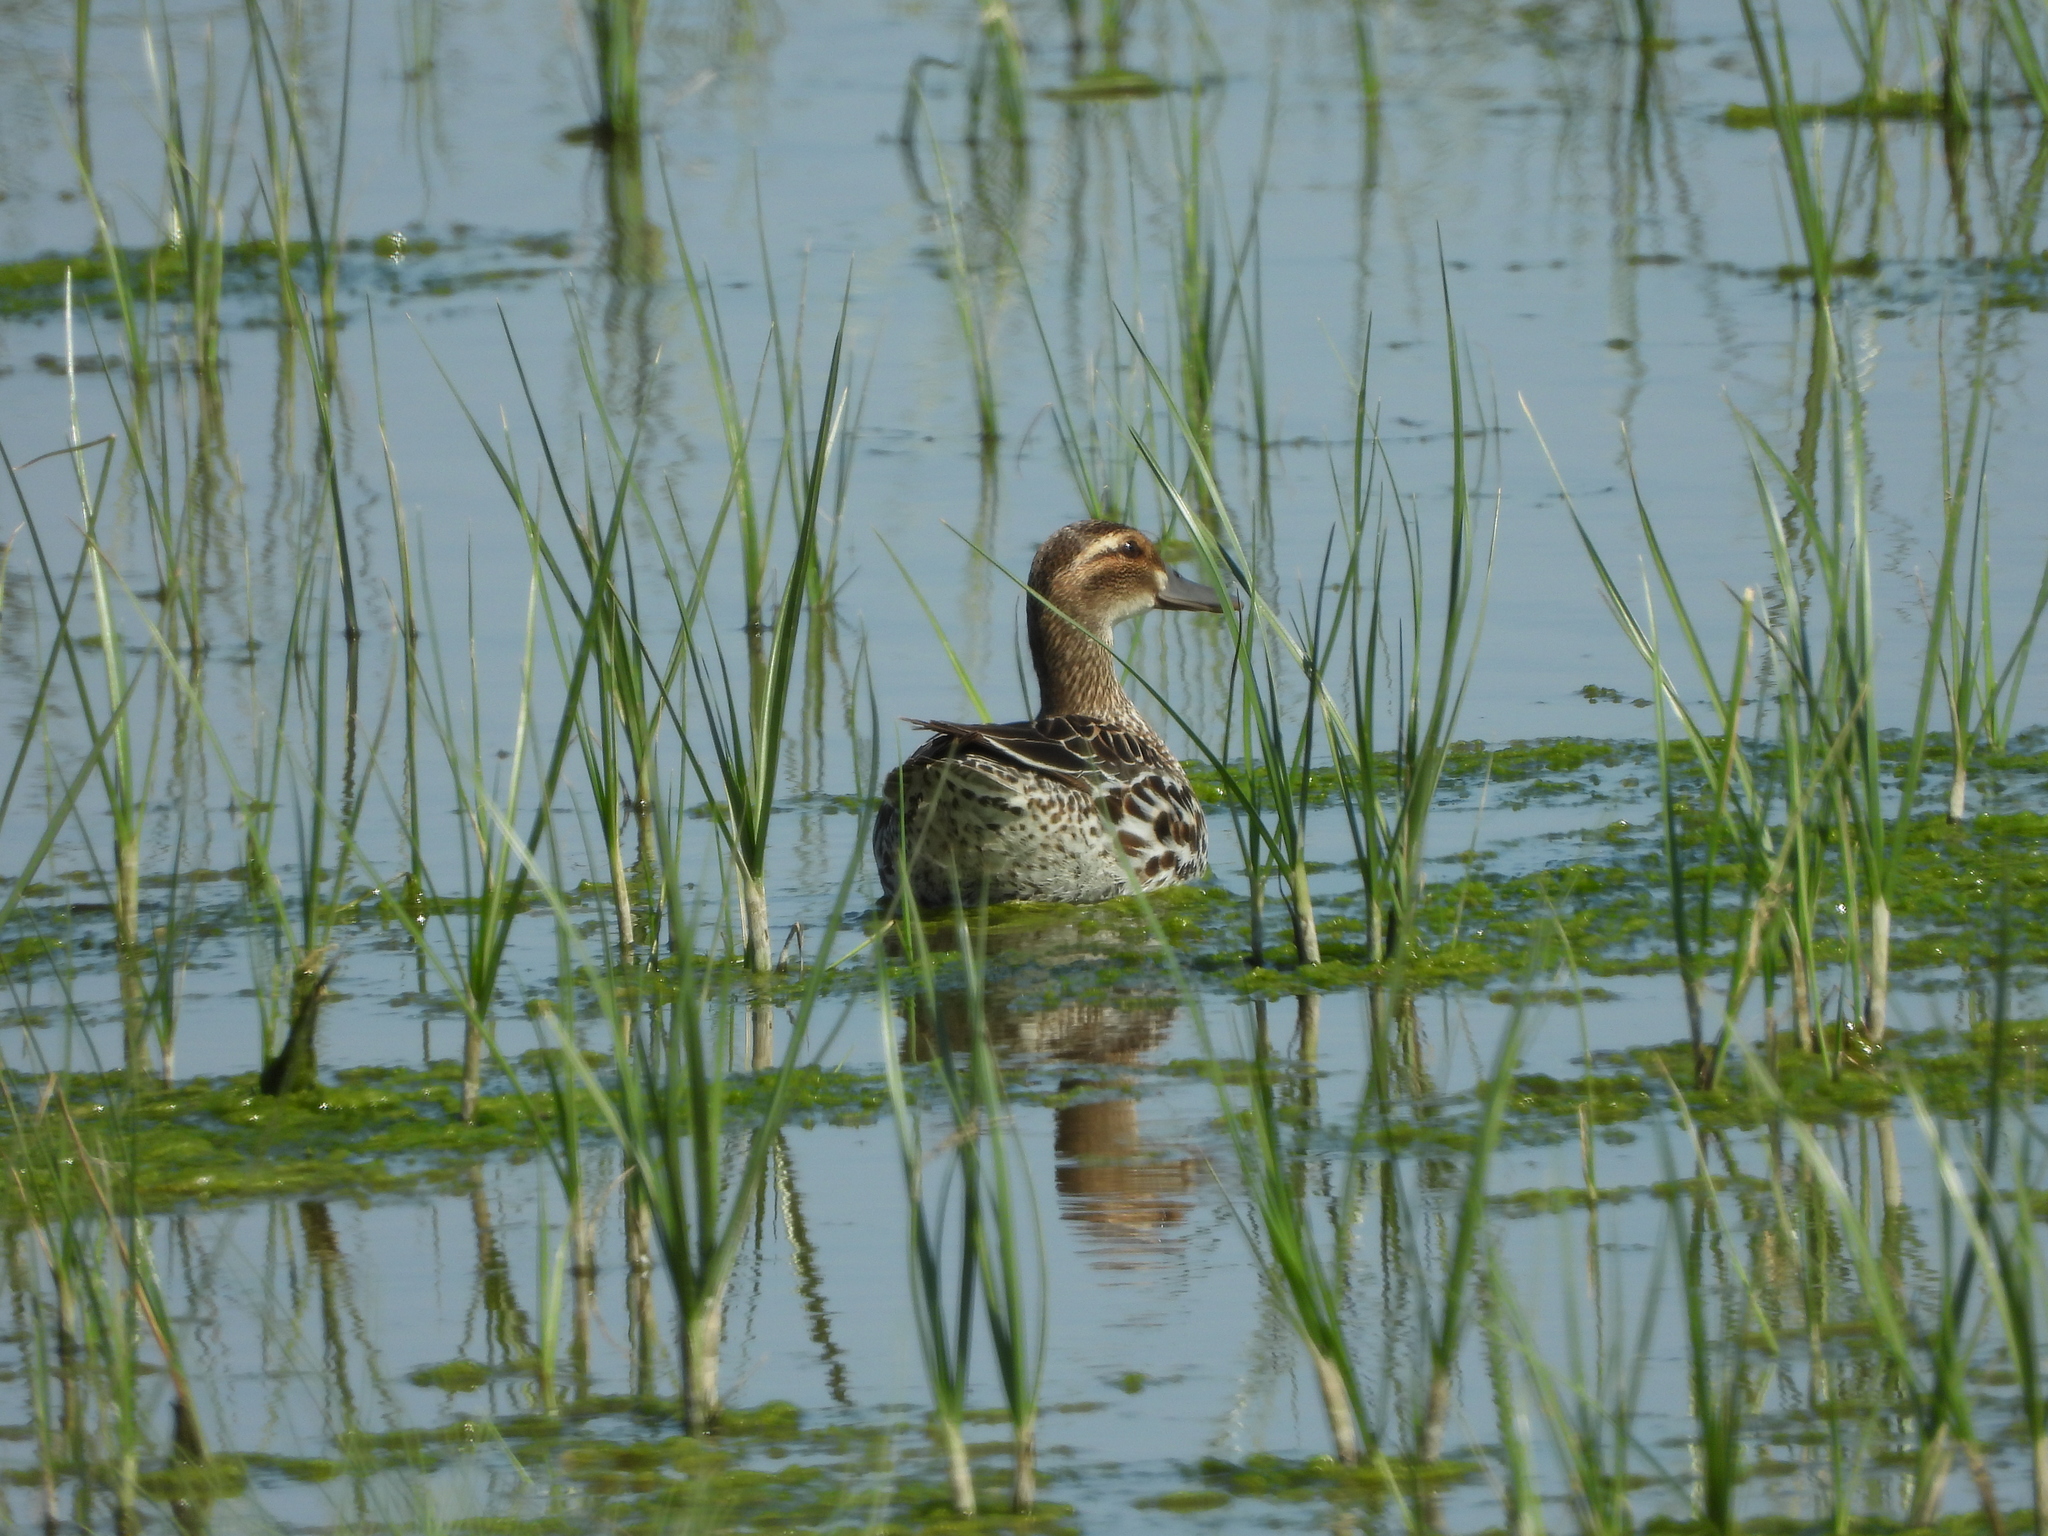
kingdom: Animalia
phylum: Chordata
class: Aves
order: Anseriformes
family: Anatidae
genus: Spatula
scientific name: Spatula querquedula
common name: Garganey
